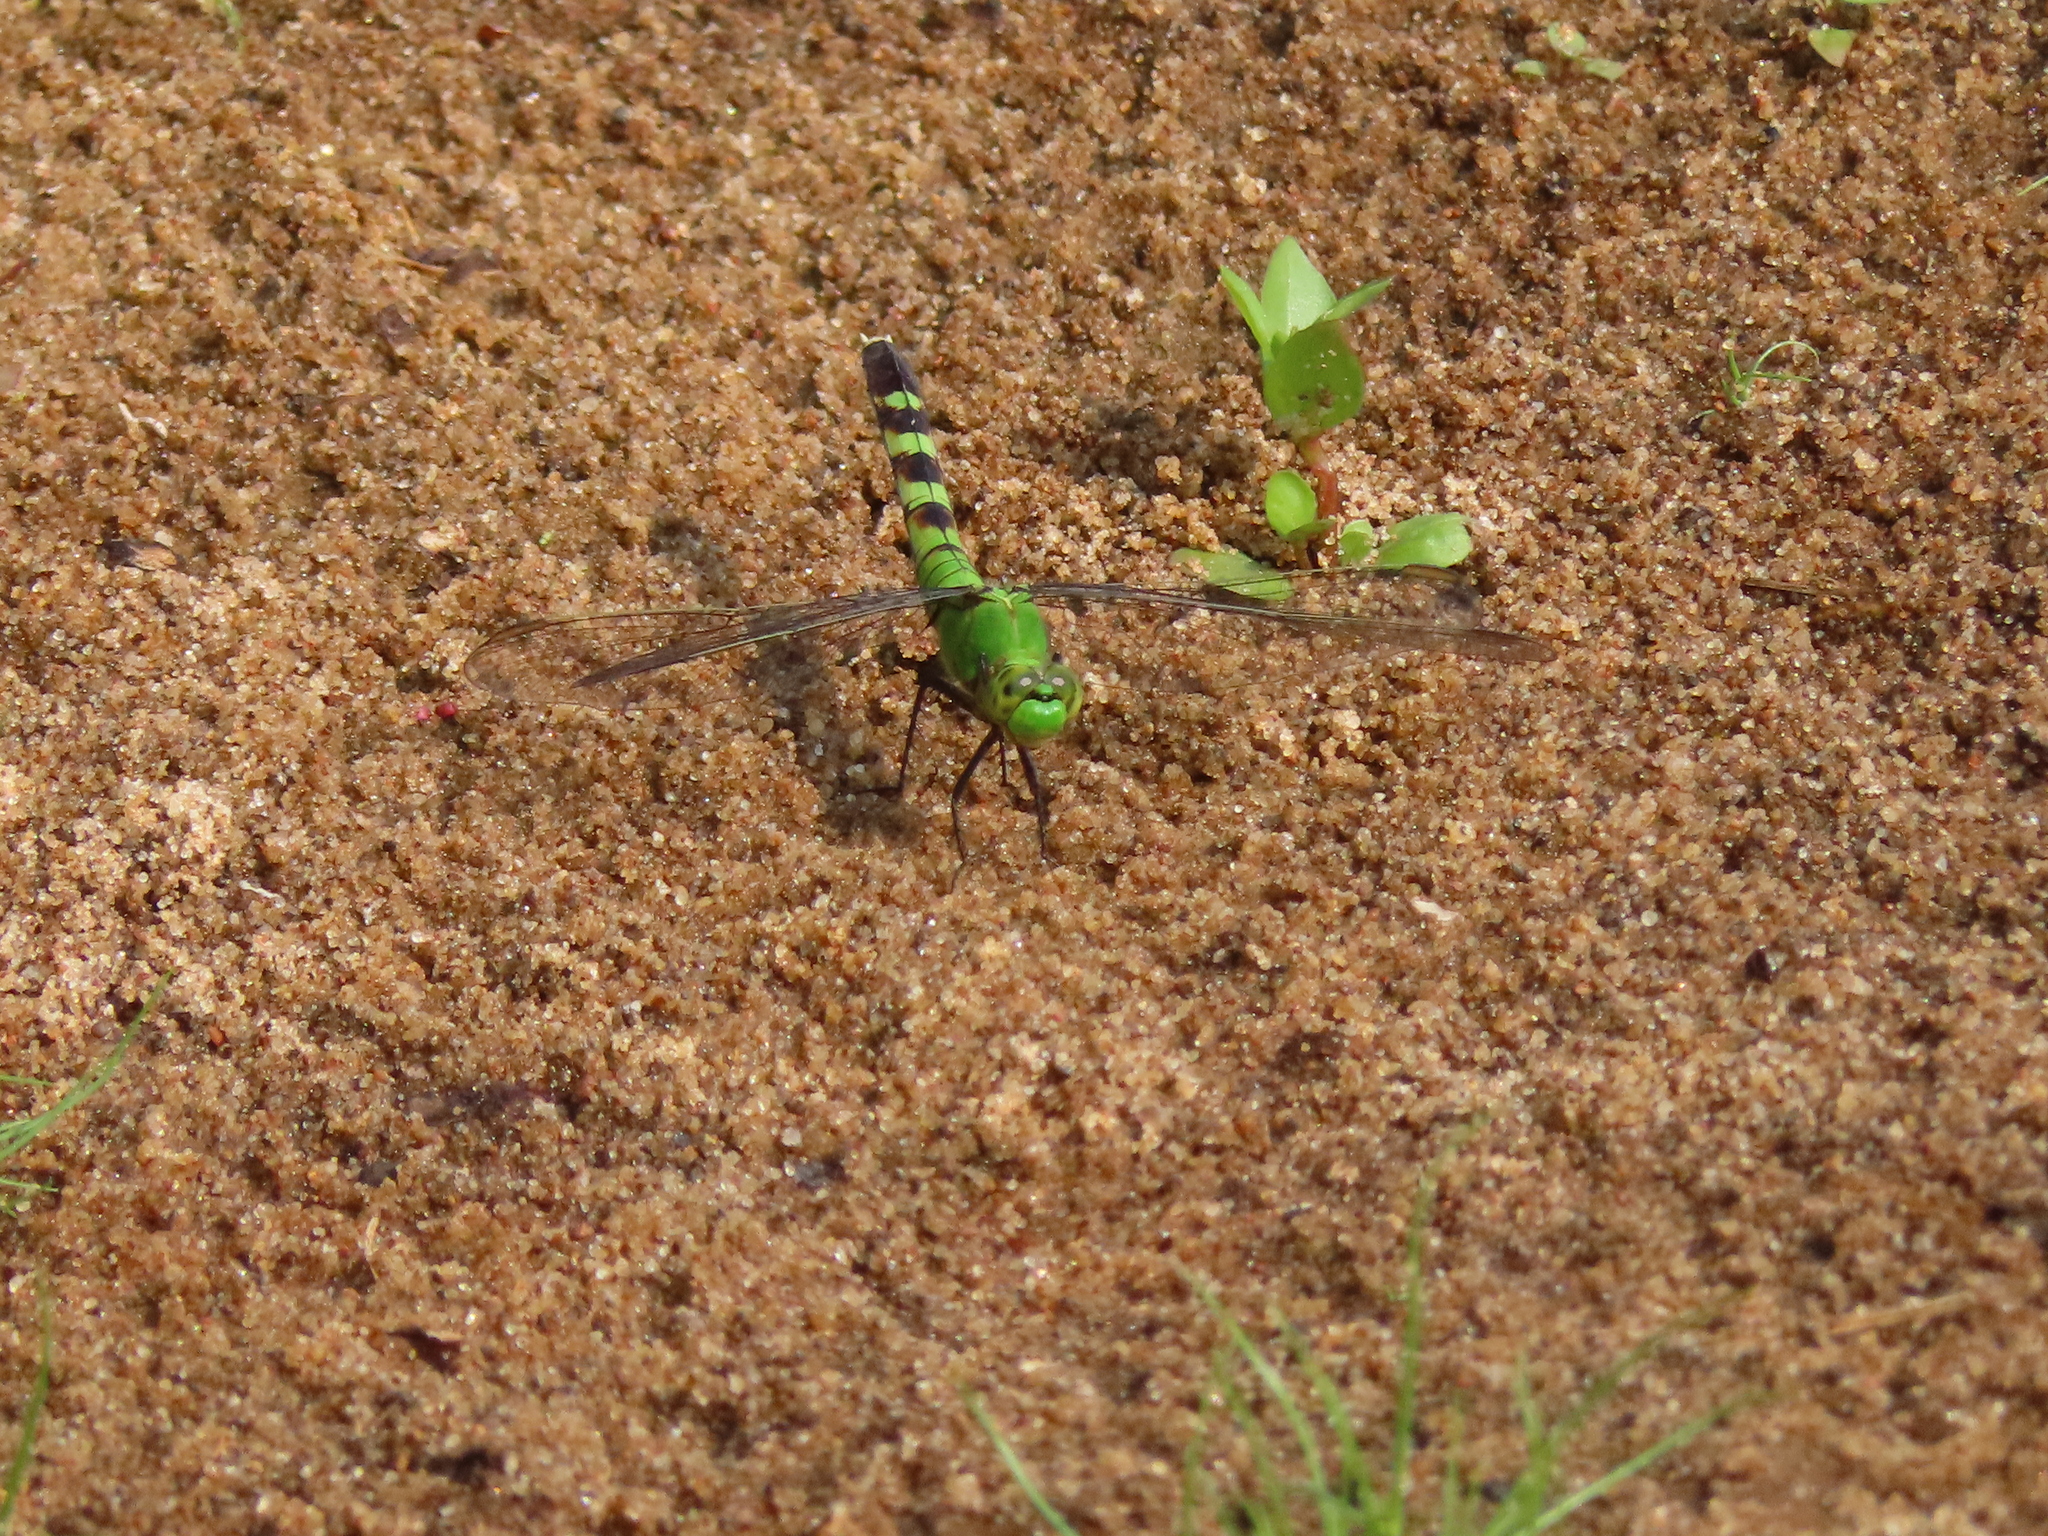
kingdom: Animalia
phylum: Arthropoda
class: Insecta
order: Odonata
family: Libellulidae
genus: Erythemis
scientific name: Erythemis simplicicollis
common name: Eastern pondhawk
